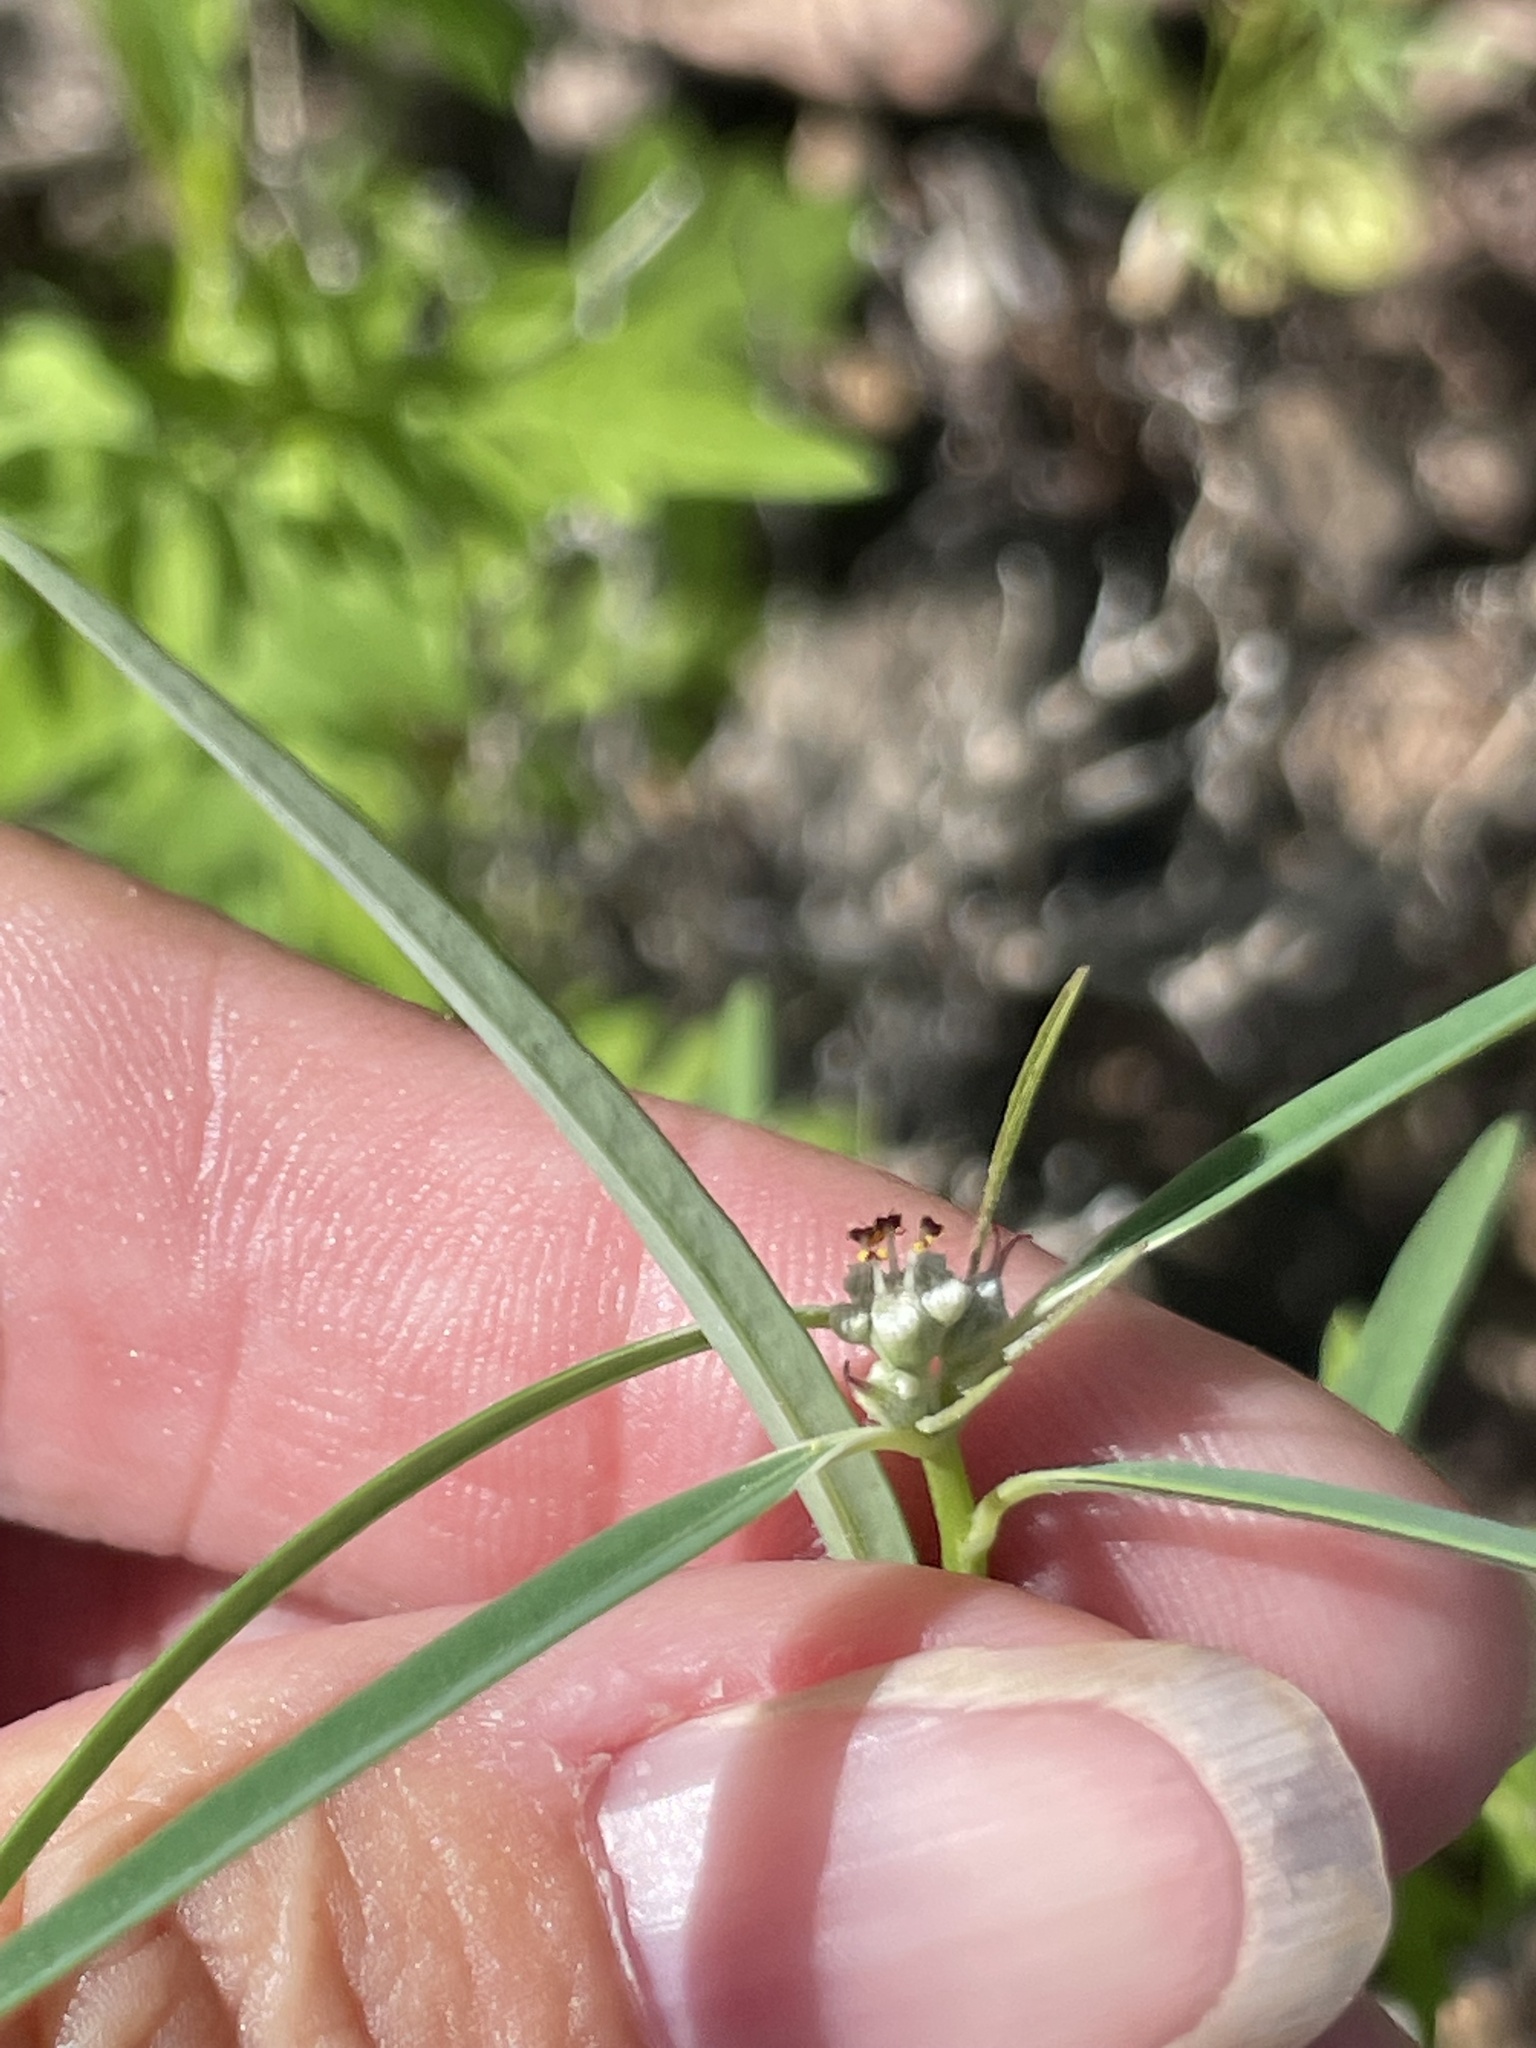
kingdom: Plantae
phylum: Tracheophyta
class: Magnoliopsida
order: Malpighiales
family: Euphorbiaceae
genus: Euphorbia
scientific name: Euphorbia eriantha
